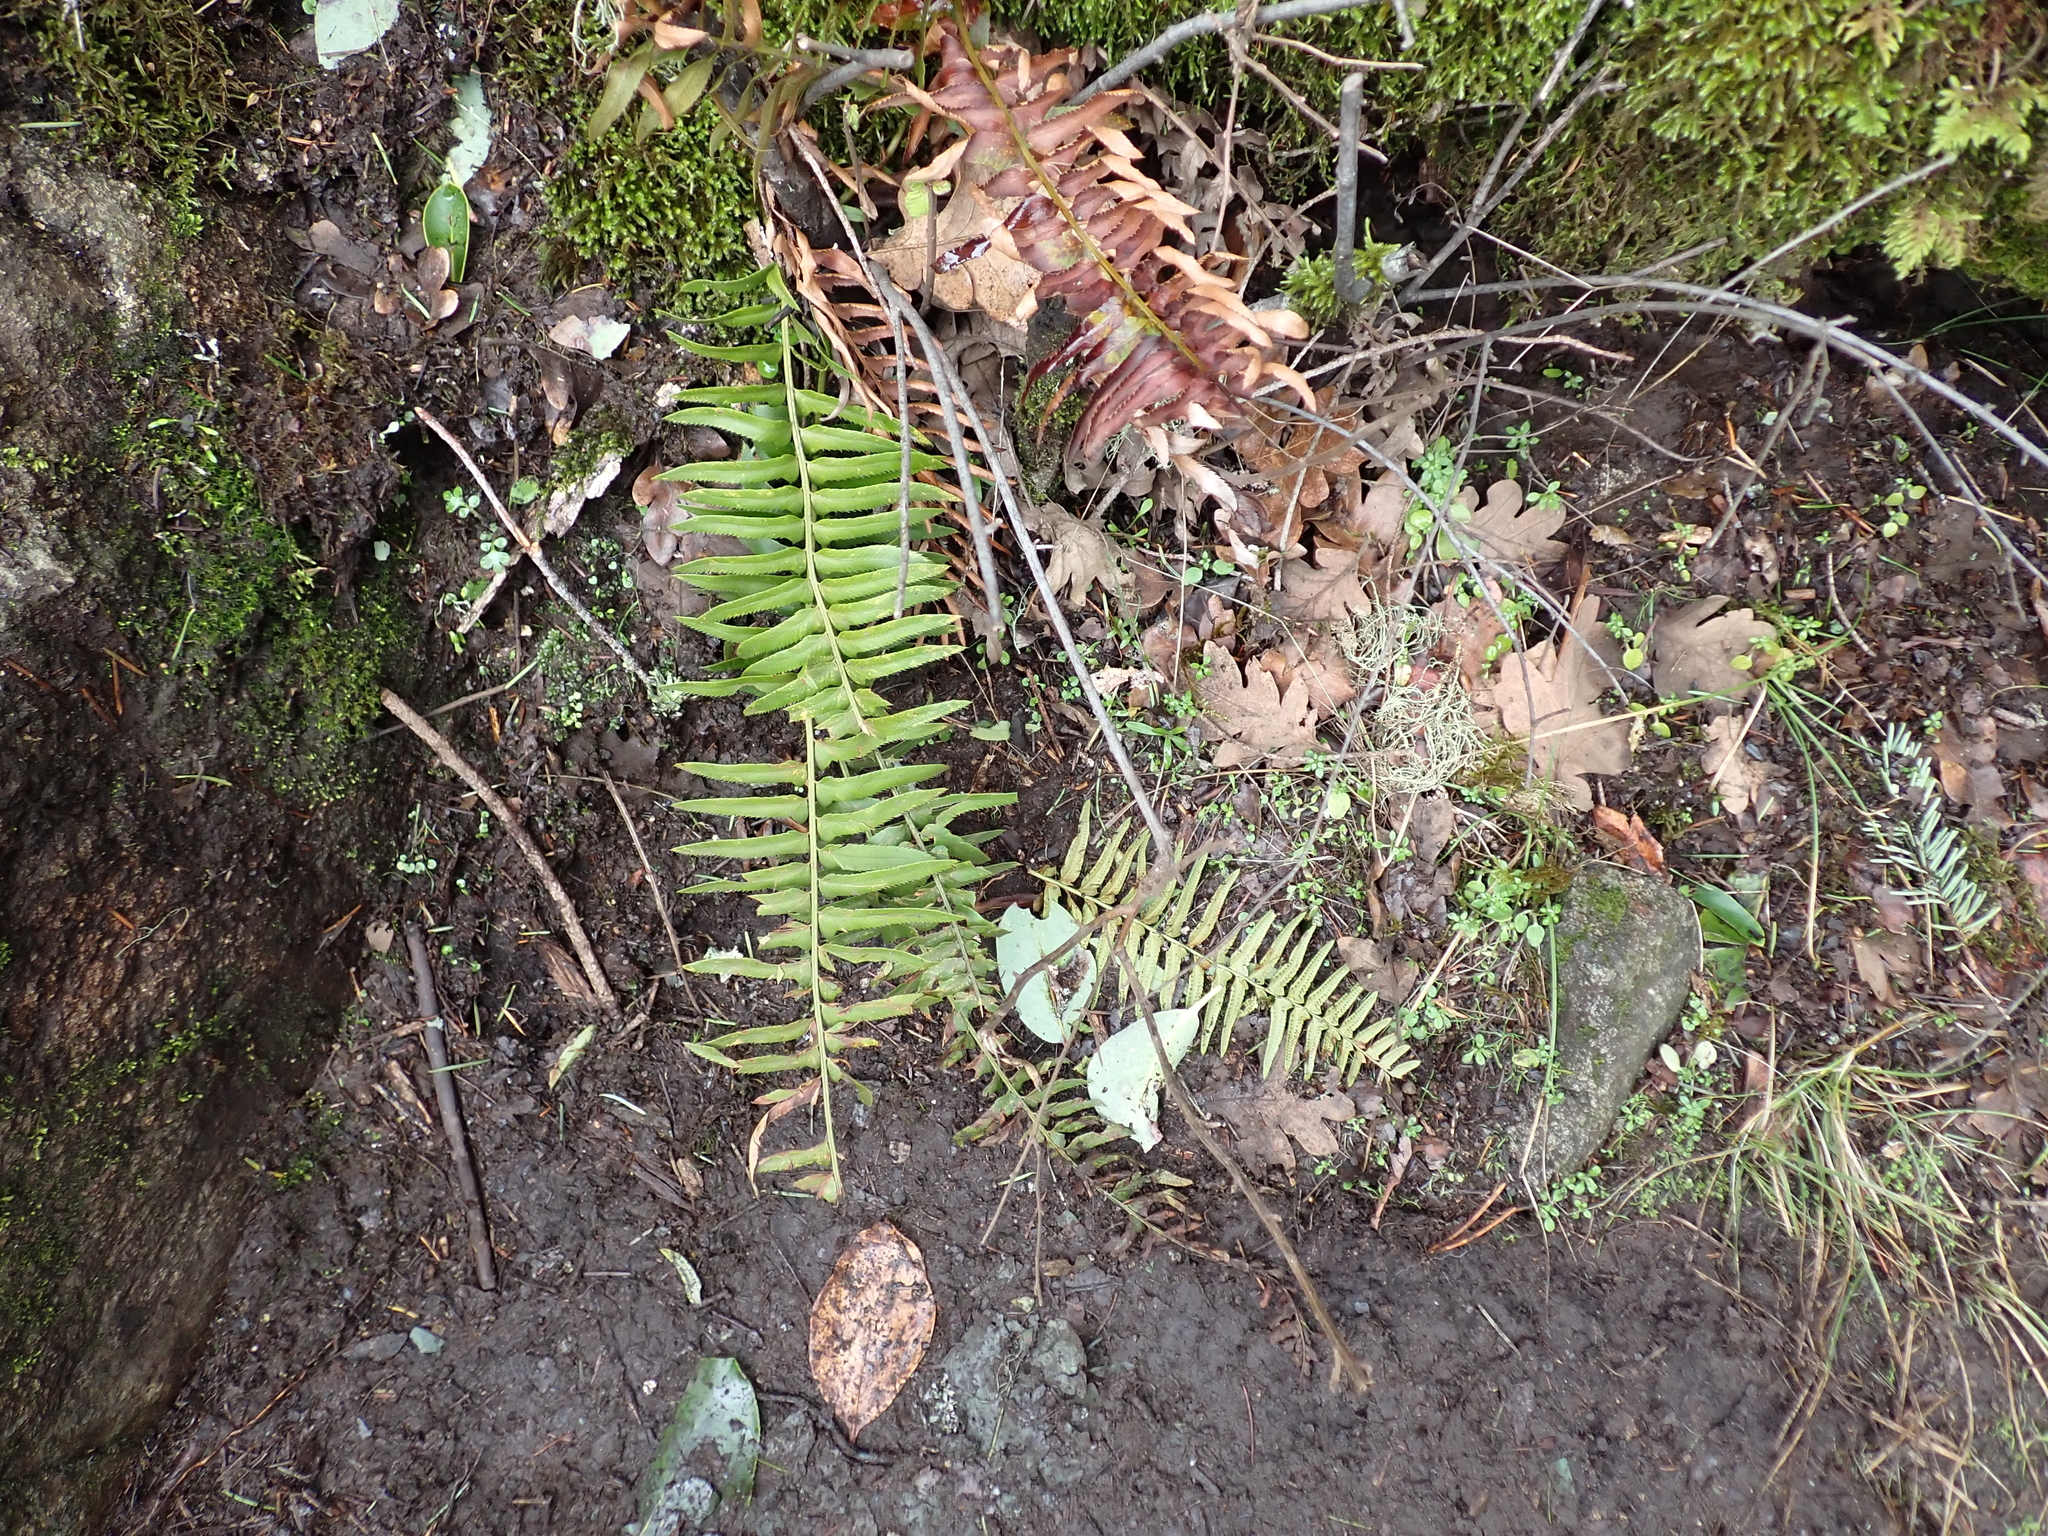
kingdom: Plantae
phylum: Tracheophyta
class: Polypodiopsida
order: Polypodiales
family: Dryopteridaceae
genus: Polystichum
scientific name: Polystichum munitum
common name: Western sword-fern
